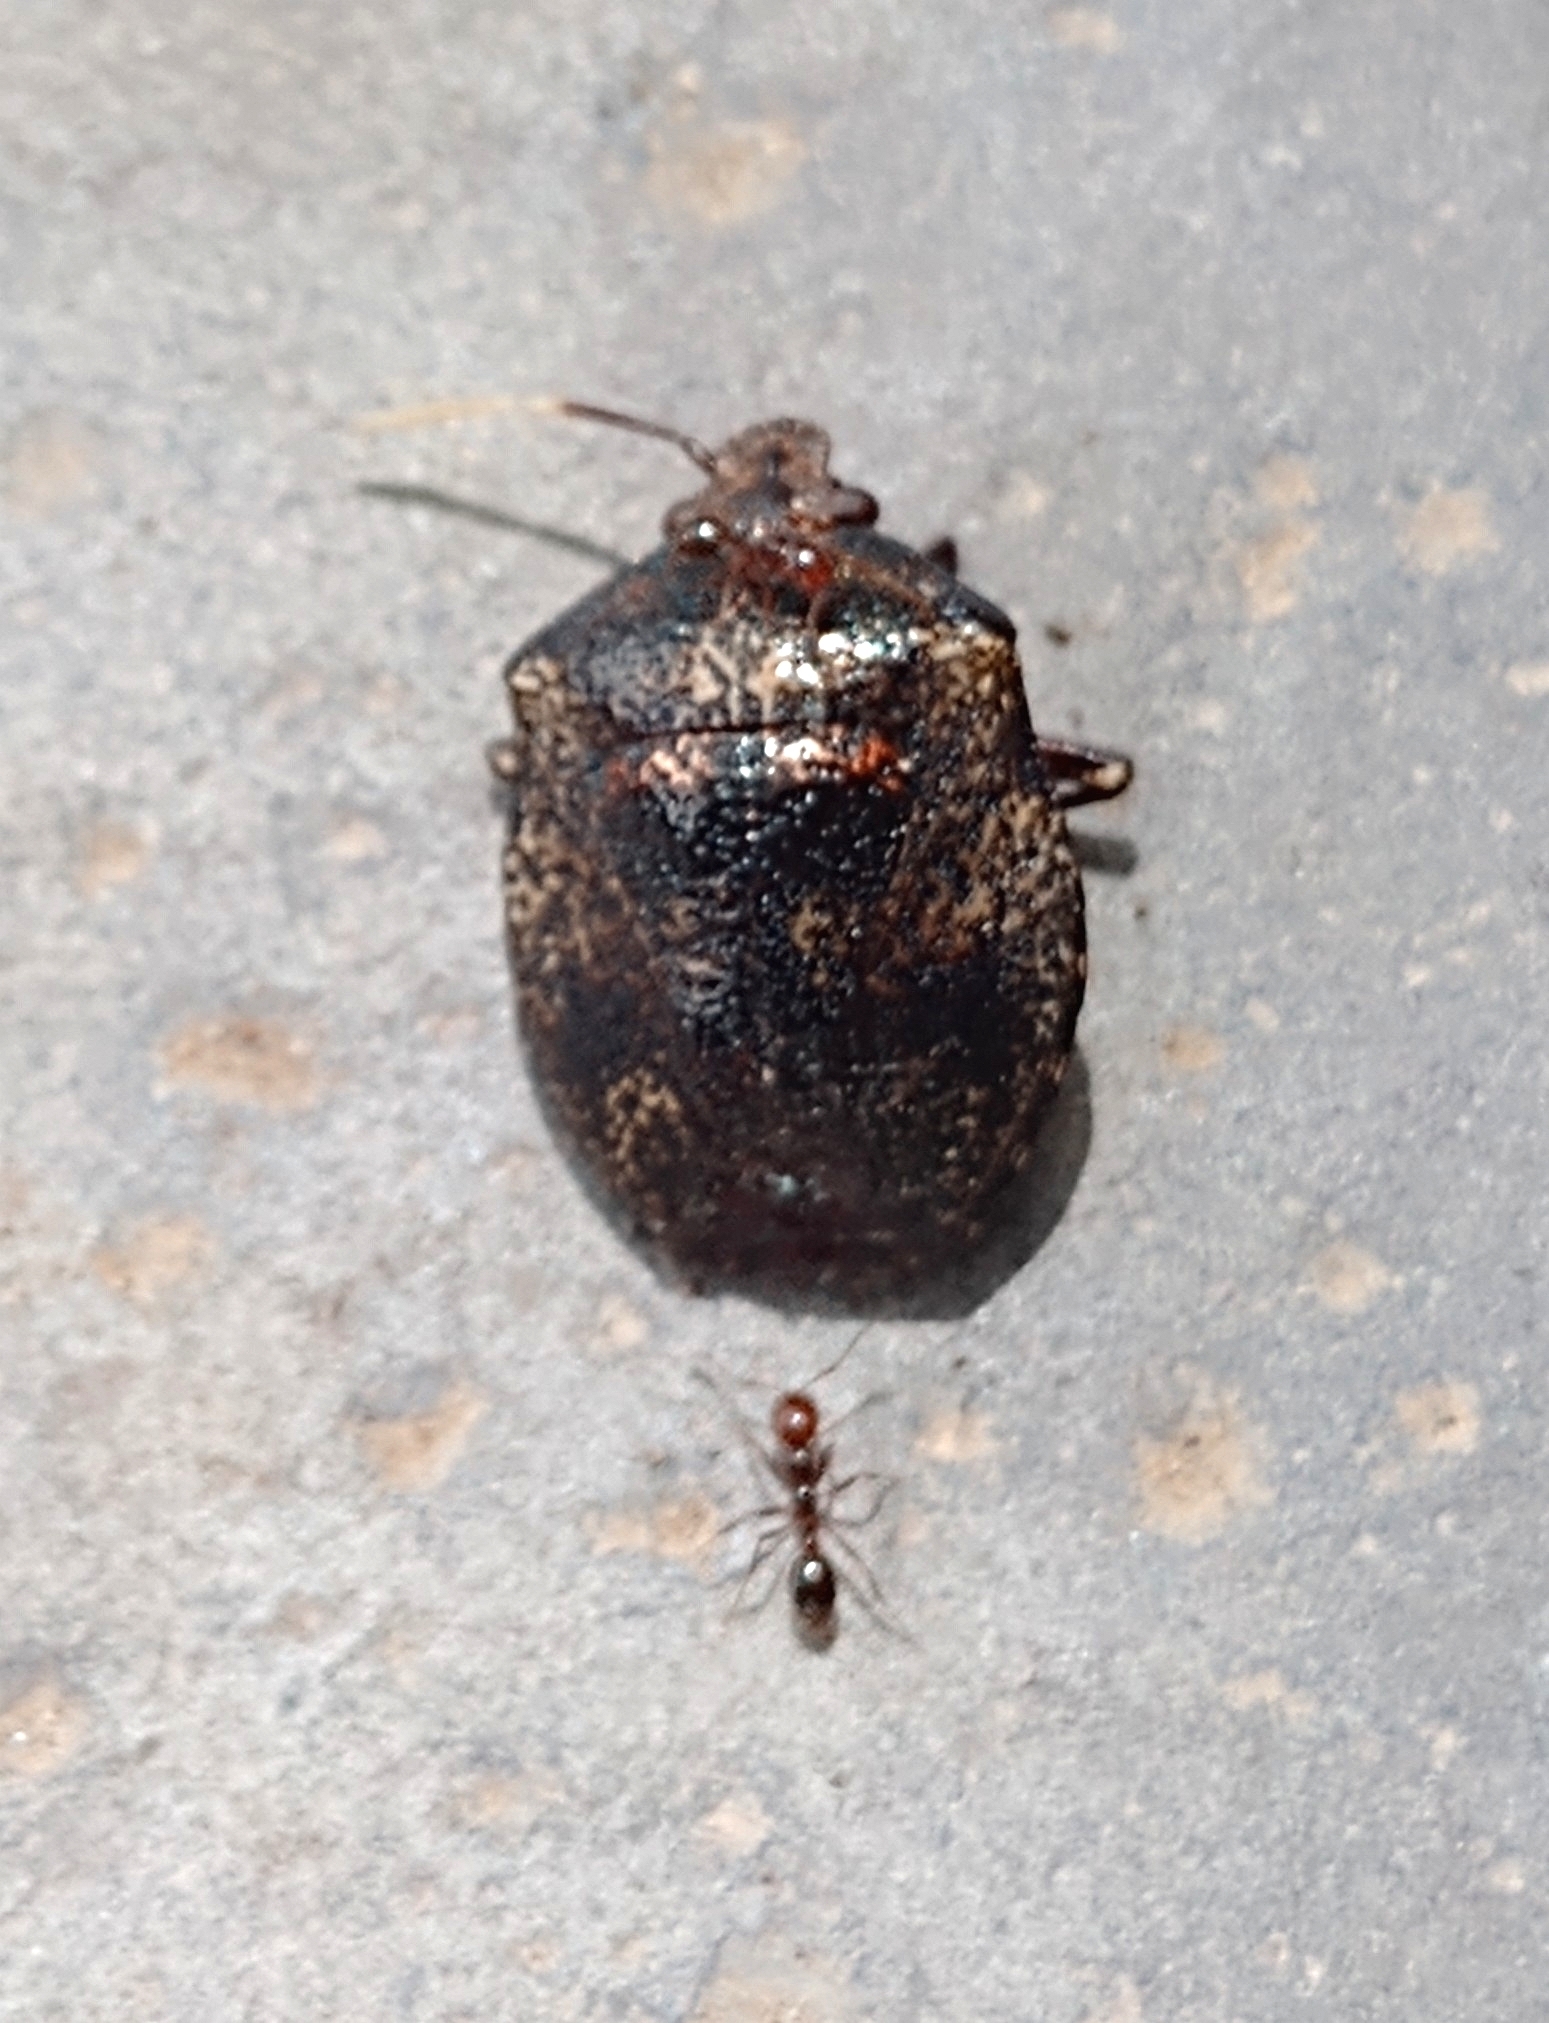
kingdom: Animalia
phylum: Arthropoda
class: Insecta
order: Hemiptera
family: Pentatomidae
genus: Antiteuchus
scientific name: Antiteuchus mixtus
